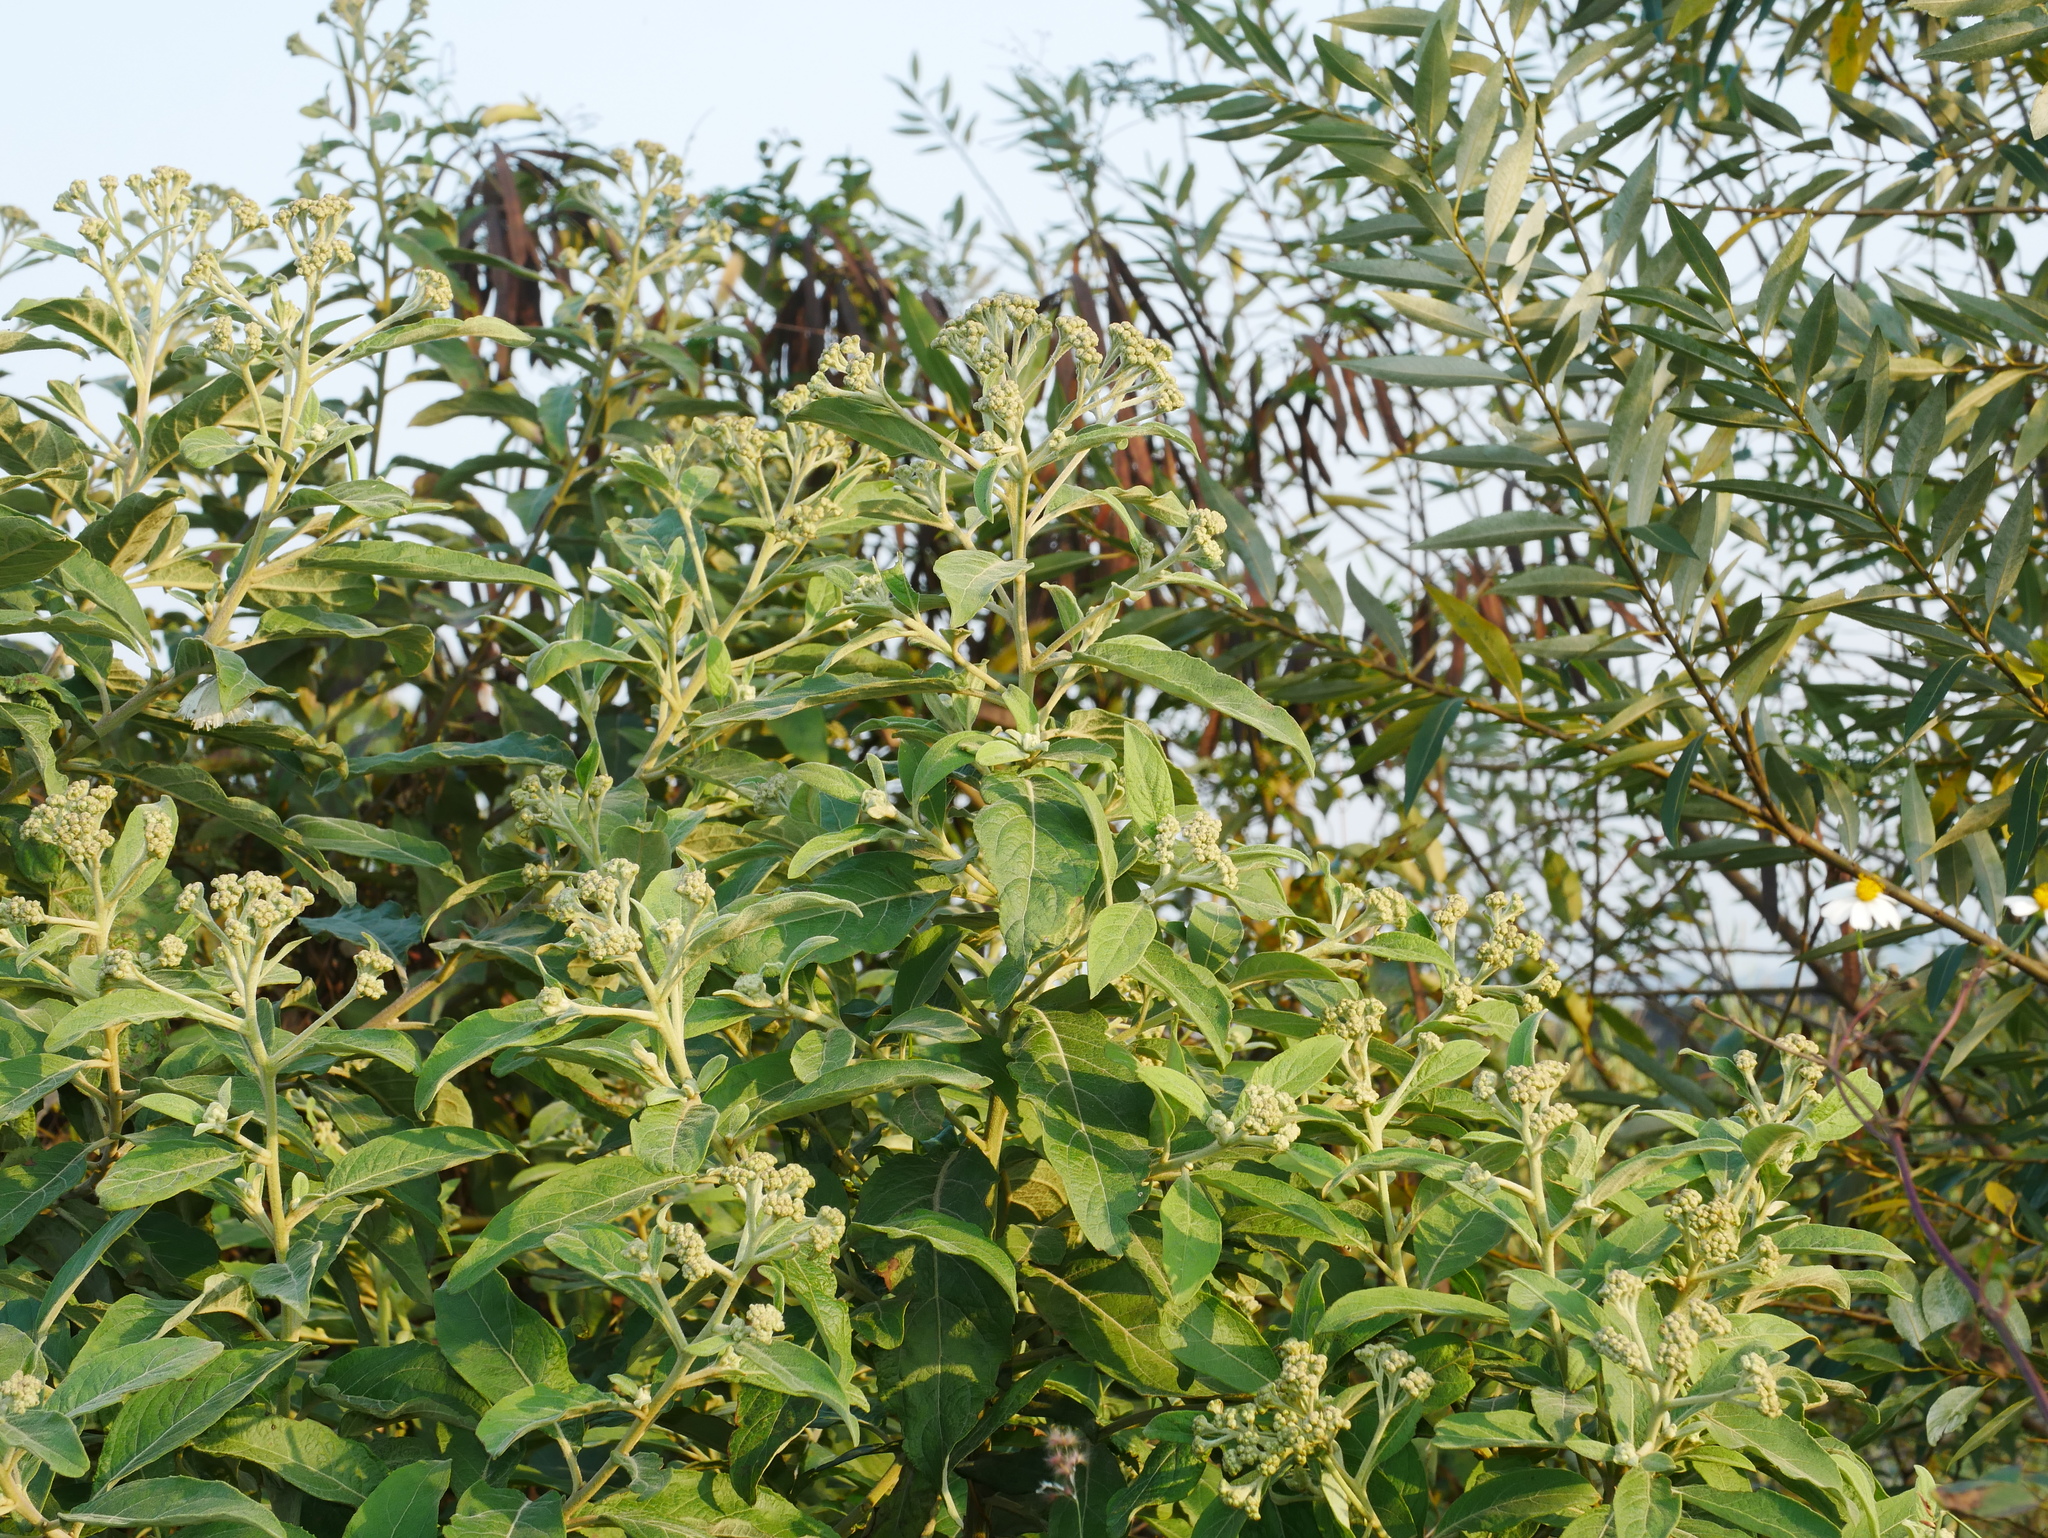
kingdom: Plantae
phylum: Tracheophyta
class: Magnoliopsida
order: Asterales
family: Asteraceae
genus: Pluchea
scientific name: Pluchea carolinensis
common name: Marsh fleabane
